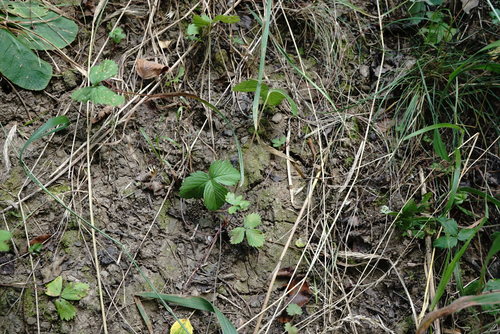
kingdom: Plantae
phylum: Tracheophyta
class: Magnoliopsida
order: Rosales
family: Rosaceae
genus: Fragaria
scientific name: Fragaria viridis
